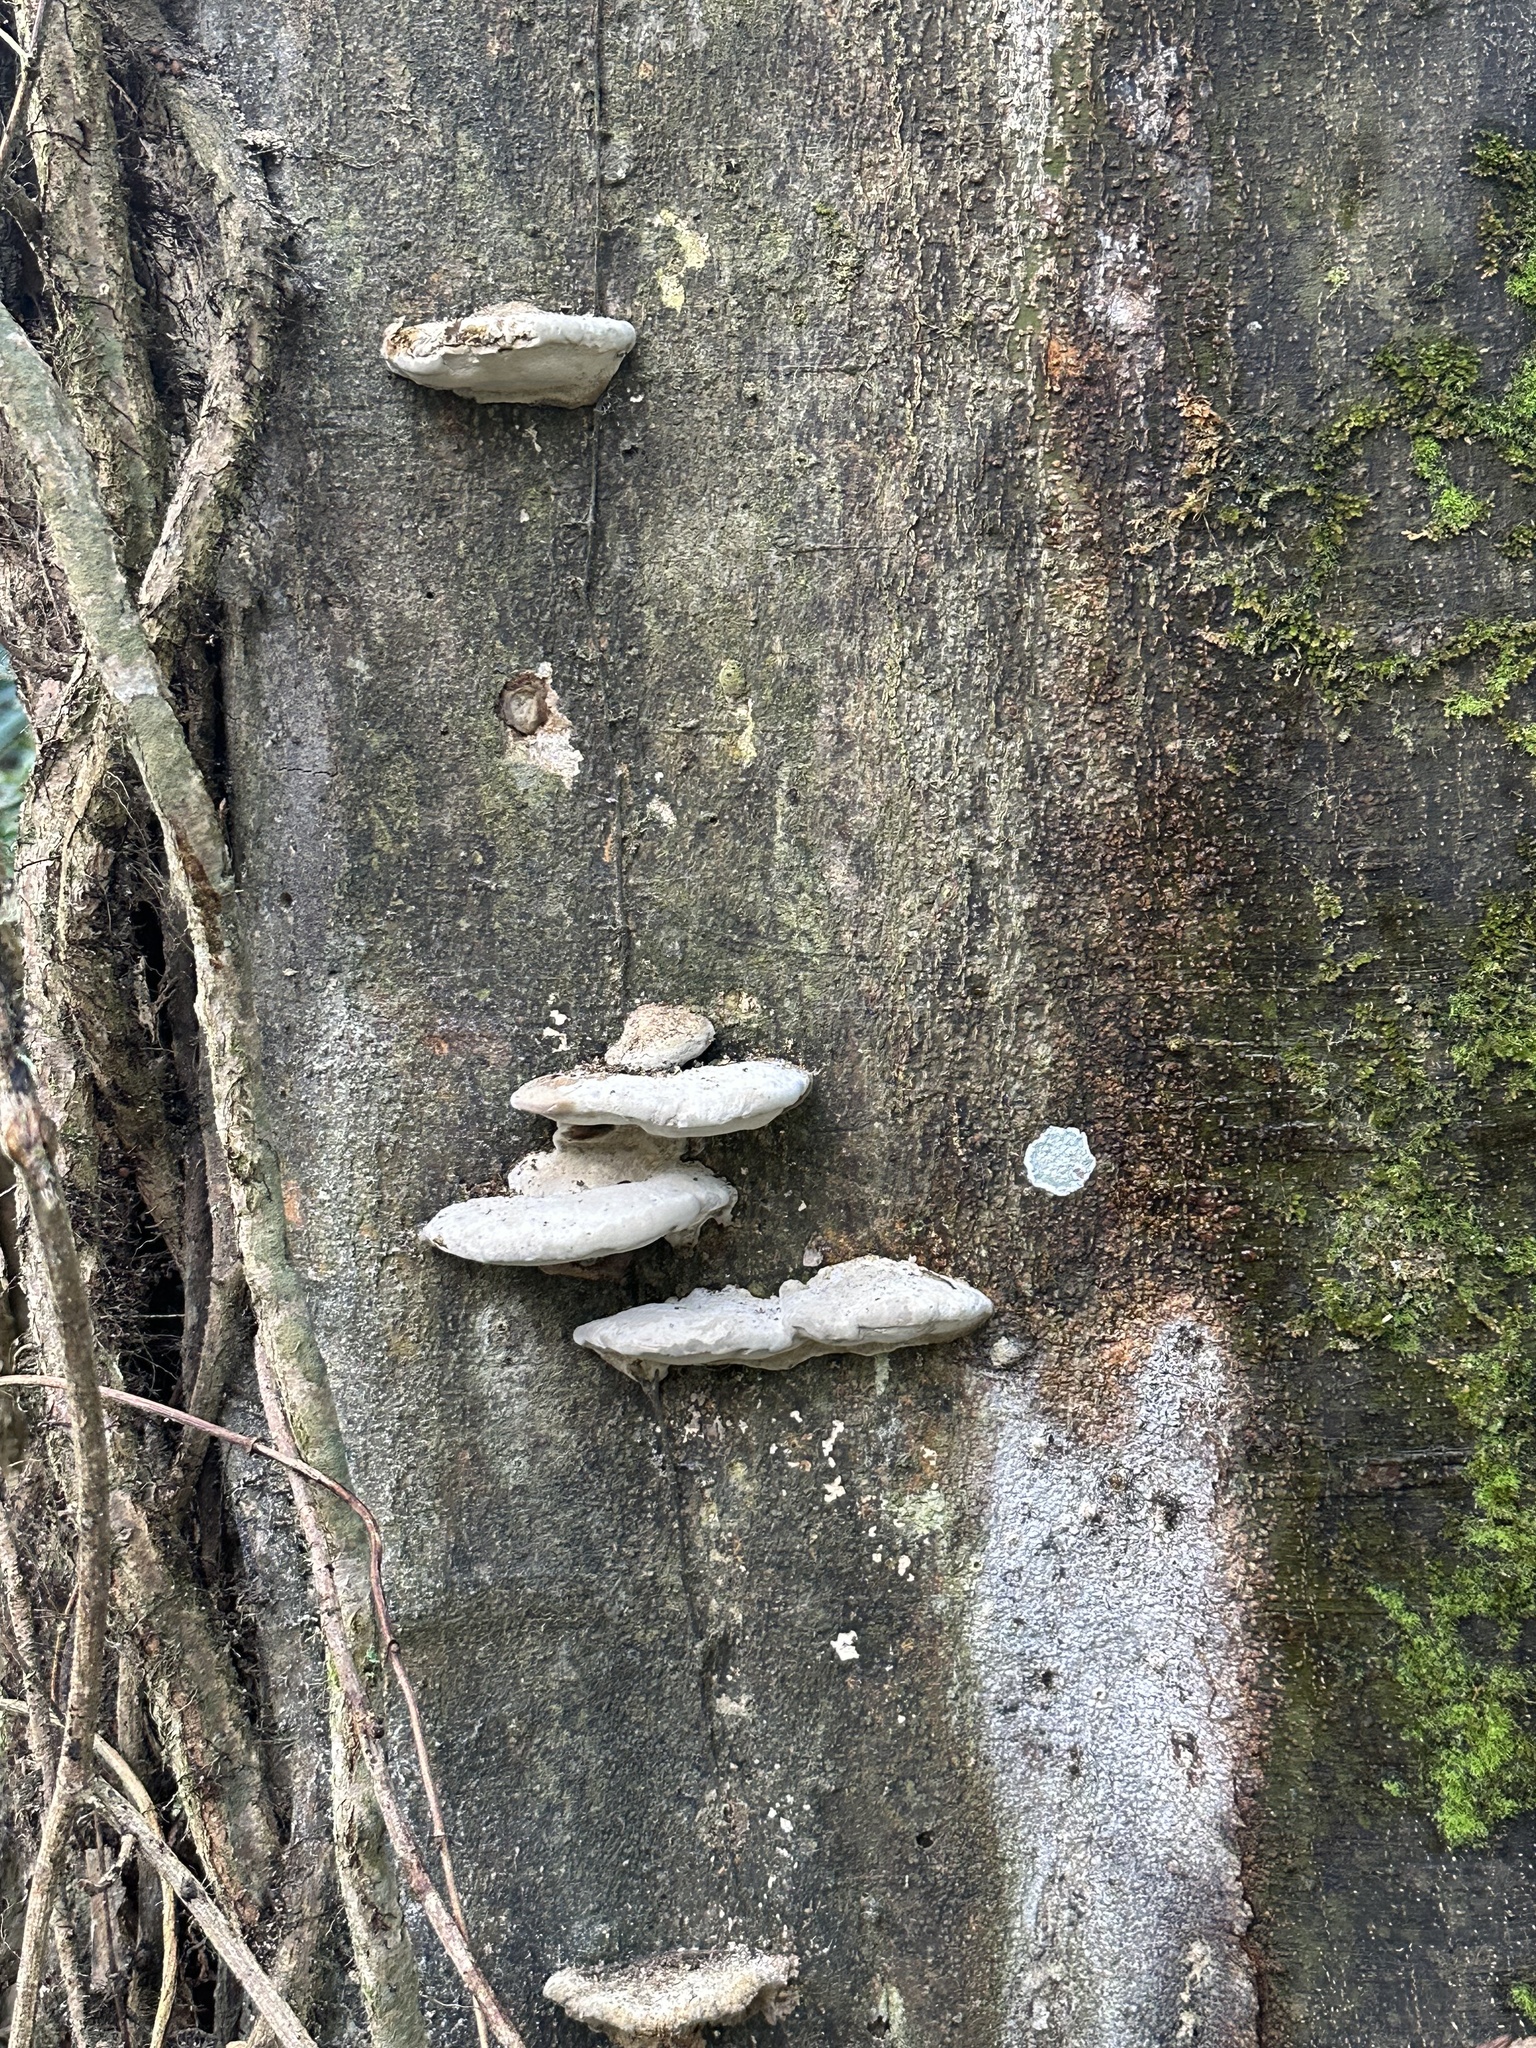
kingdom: Fungi
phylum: Basidiomycota
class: Agaricomycetes
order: Polyporales
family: Polyporaceae
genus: Trametes
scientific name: Trametes lactinea
